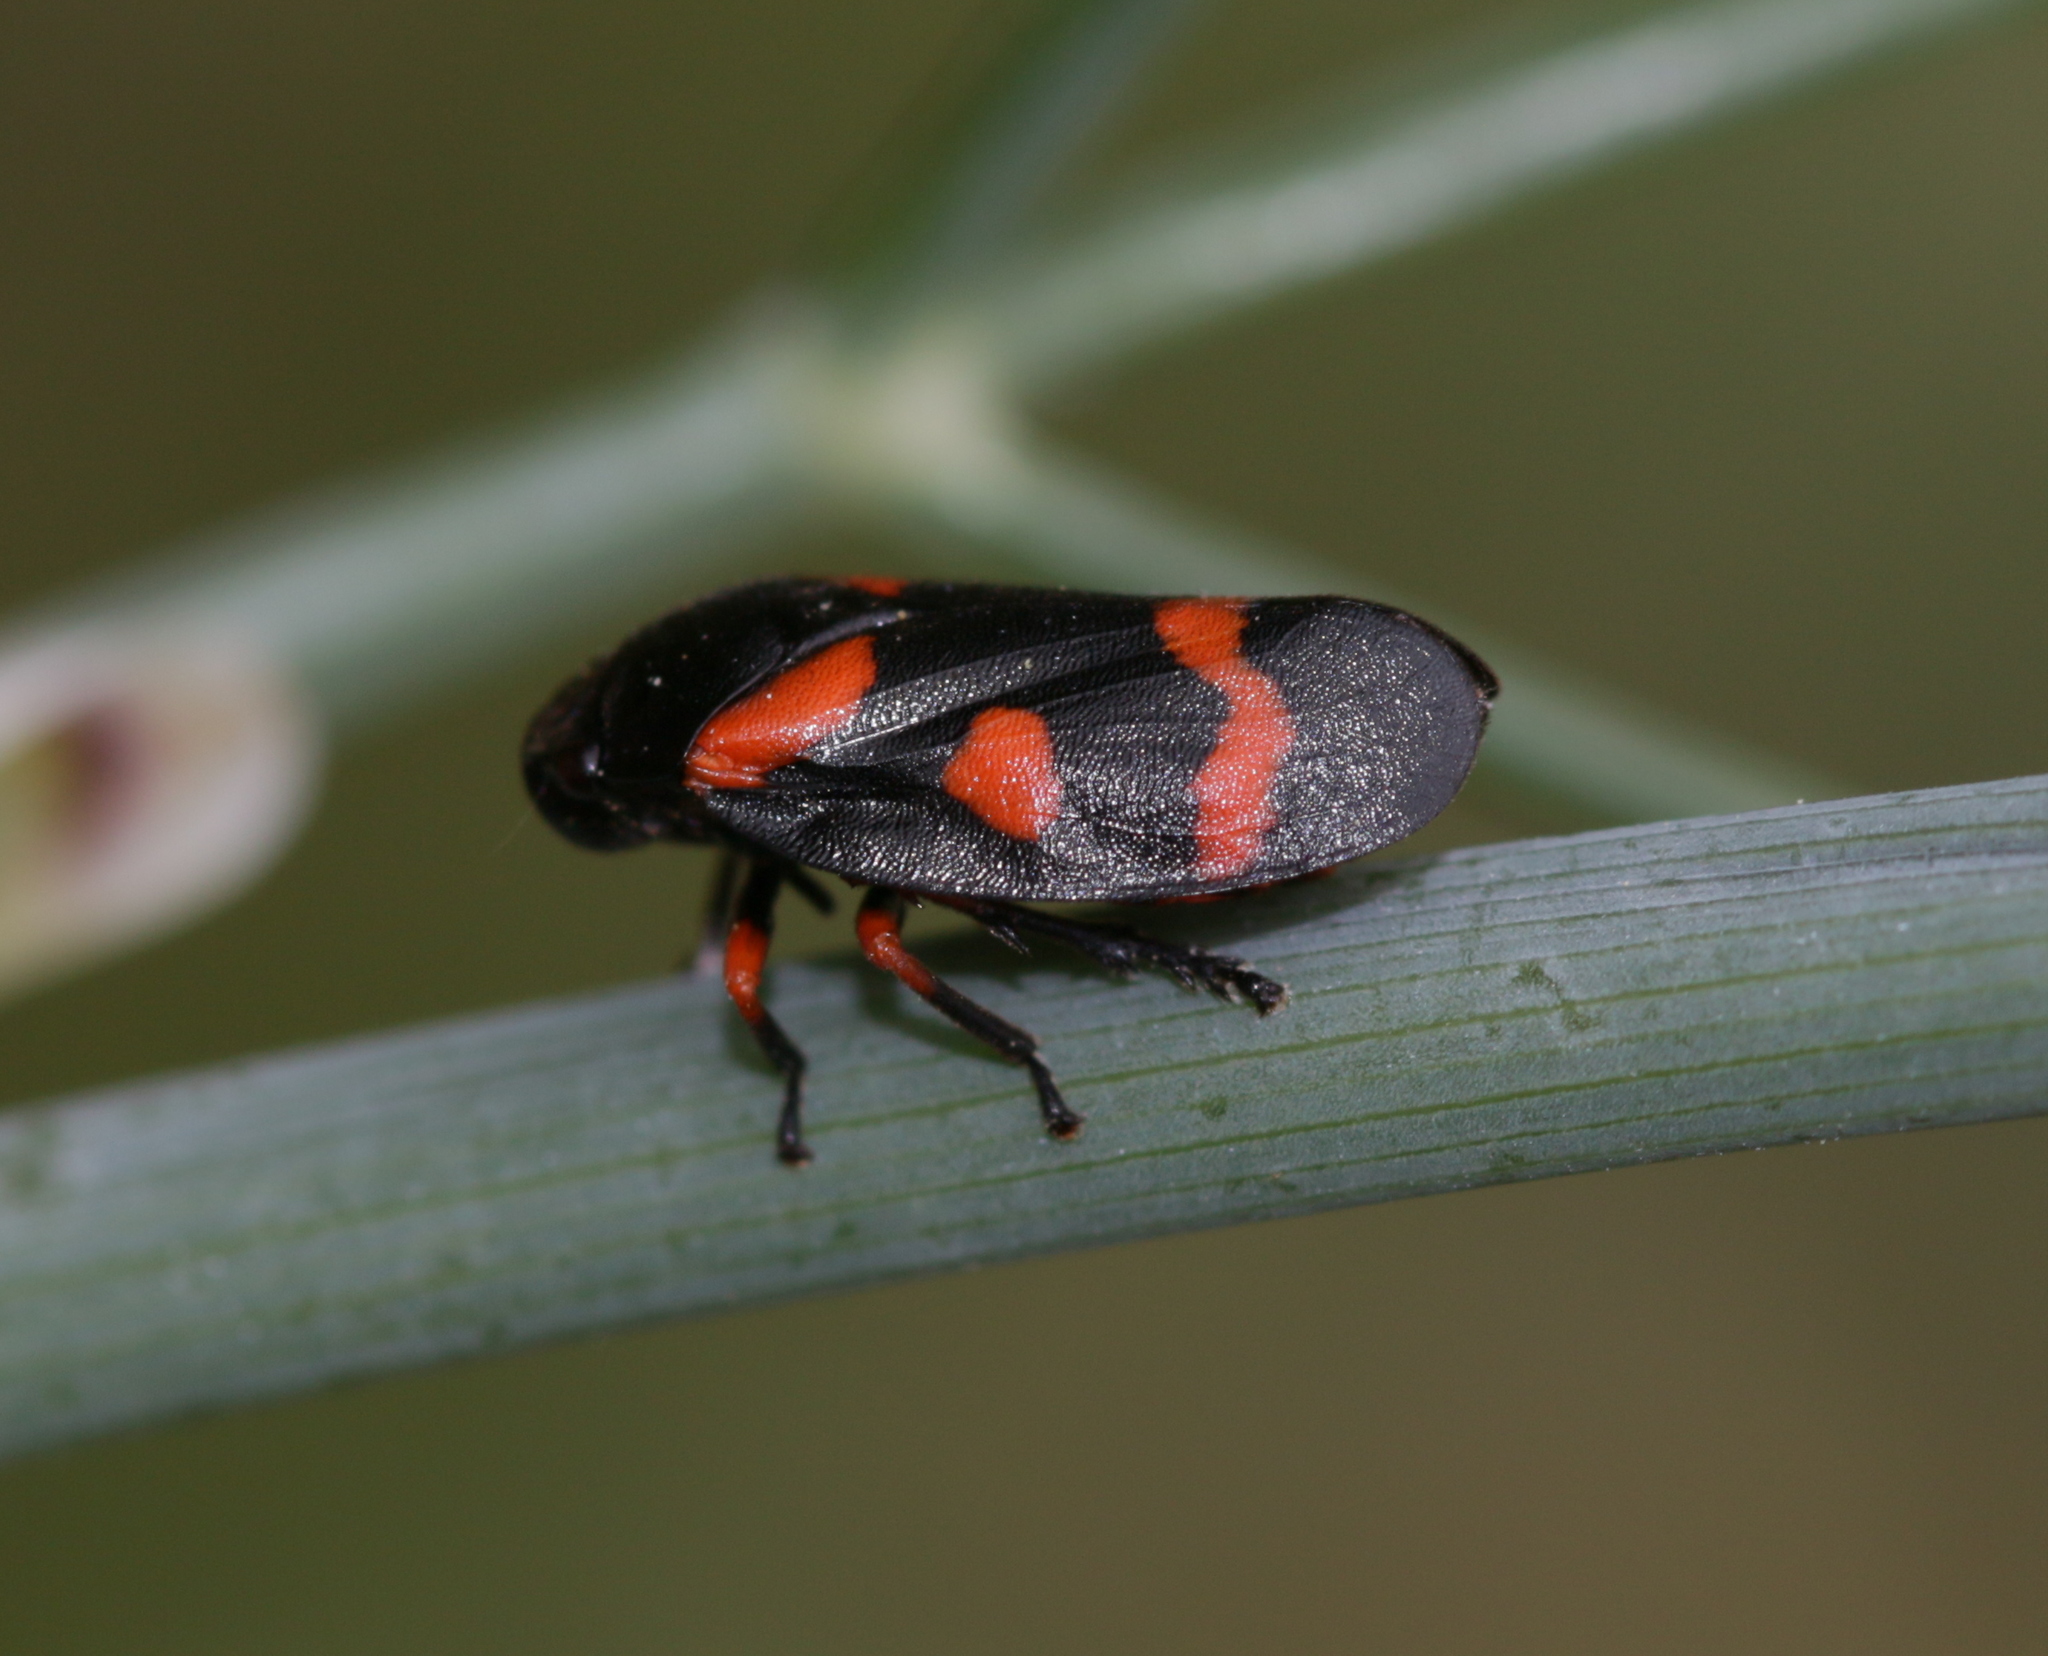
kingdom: Animalia
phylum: Arthropoda
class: Insecta
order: Hemiptera
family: Cercopidae
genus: Cercopis
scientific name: Cercopis intermedia
